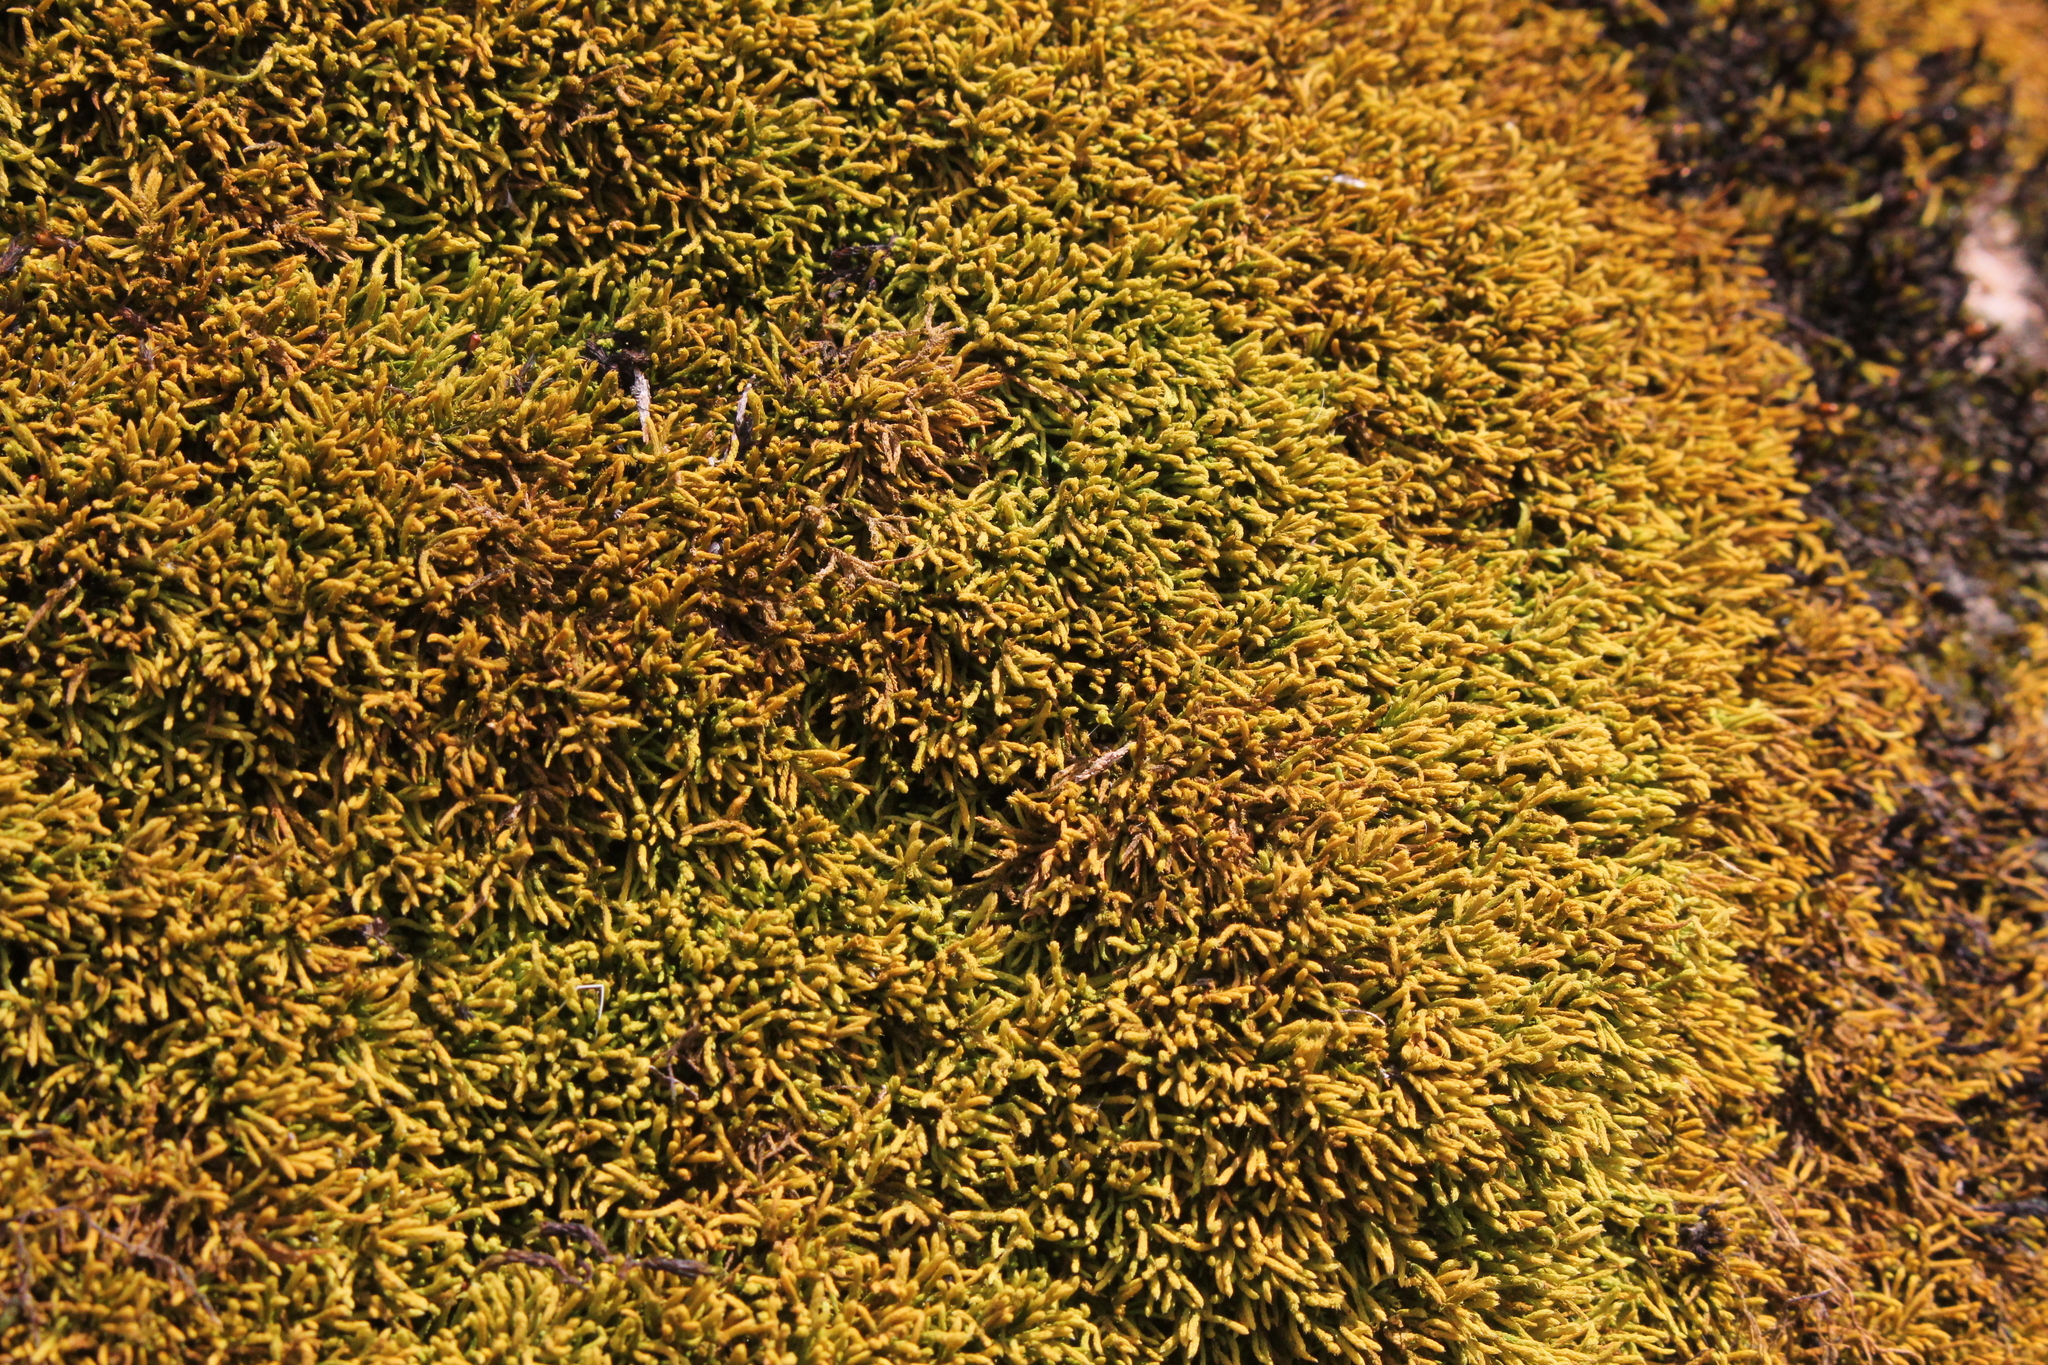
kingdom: Plantae
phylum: Bryophyta
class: Bryopsida
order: Hypnales
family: Brachytheciaceae
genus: Claopodium
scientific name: Claopodium rostratum
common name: Yellow yarn moss
